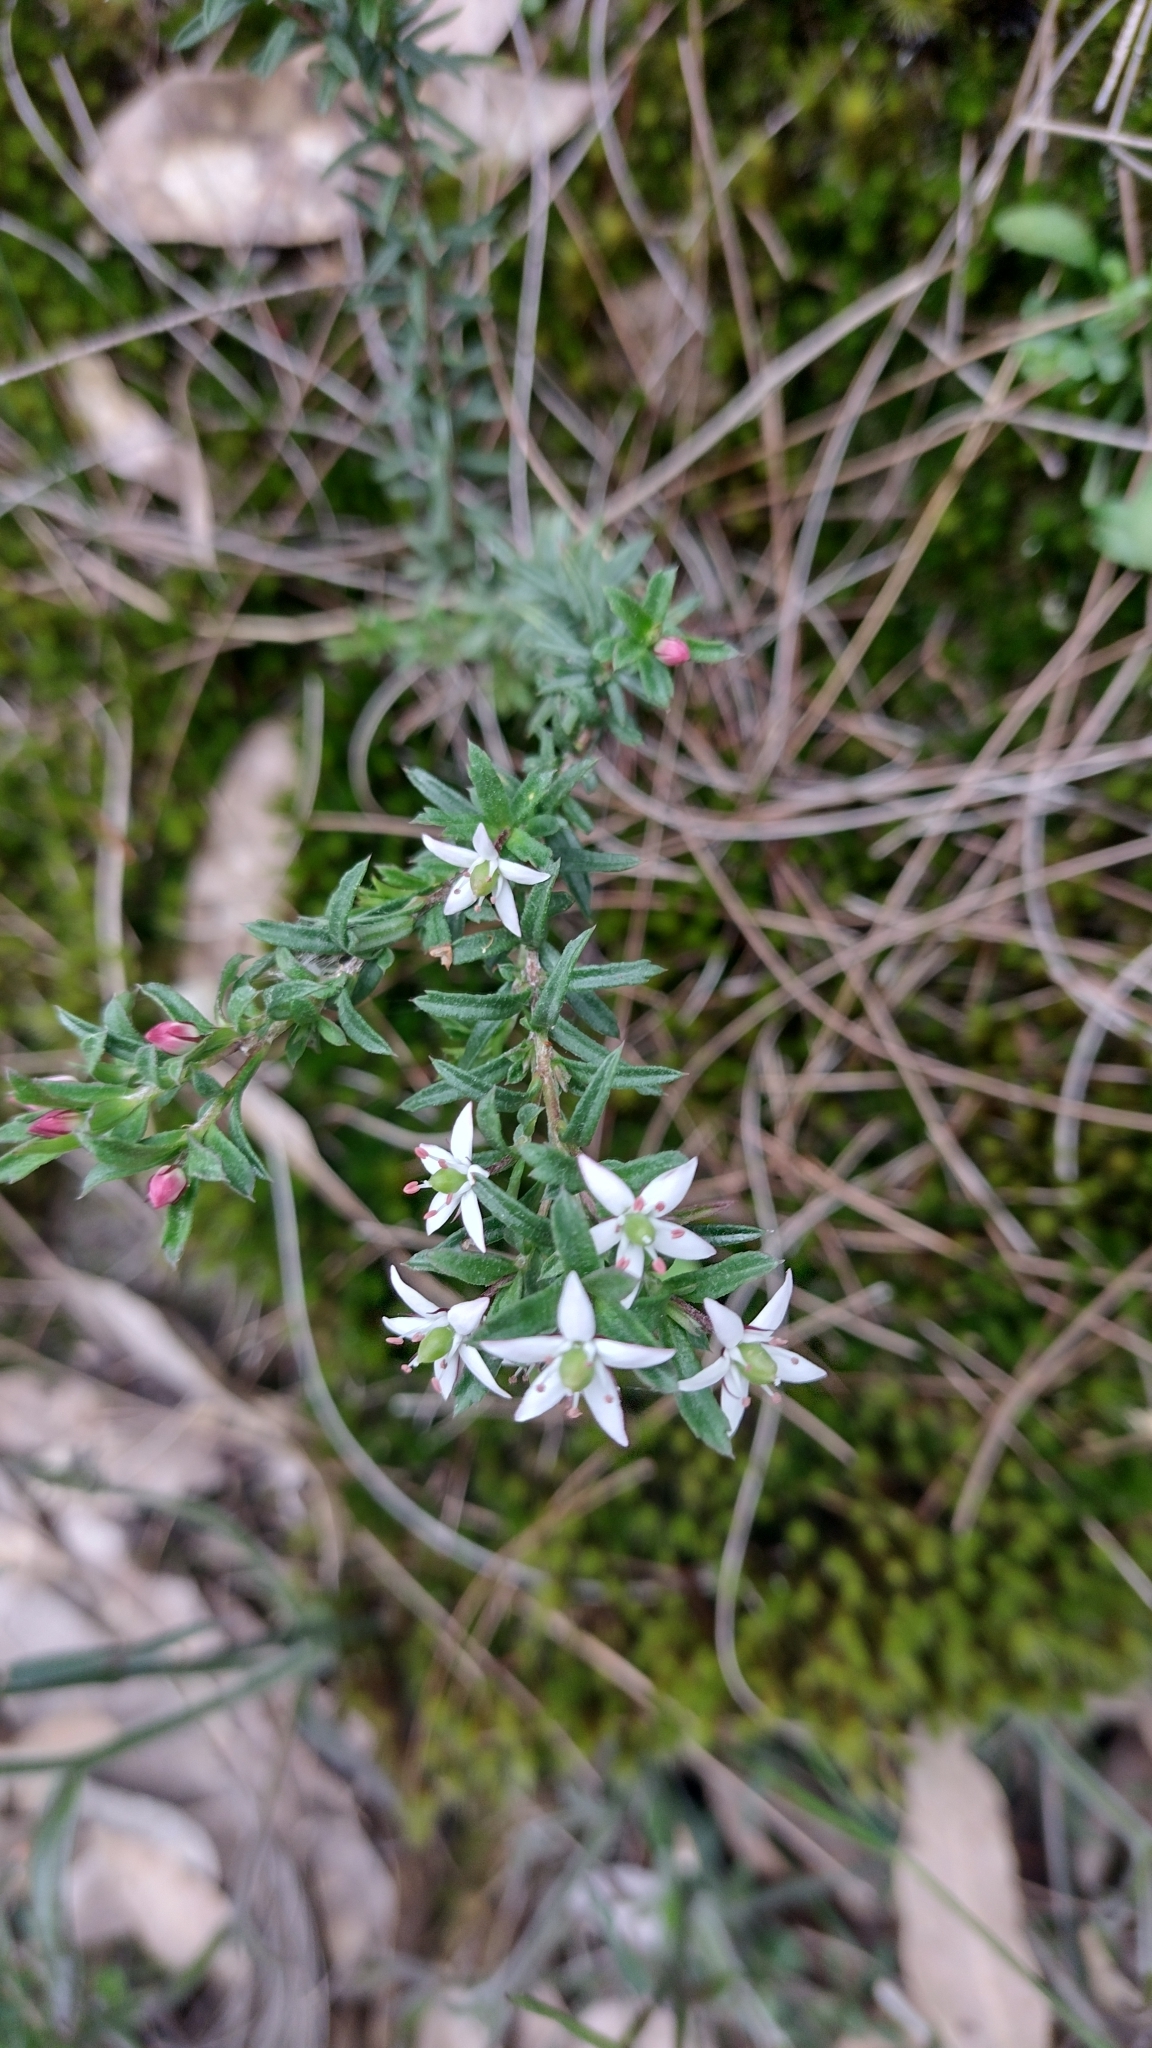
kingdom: Plantae
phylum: Tracheophyta
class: Magnoliopsida
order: Apiales
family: Pittosporaceae
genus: Rhytidosporum
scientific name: Rhytidosporum procumbens
